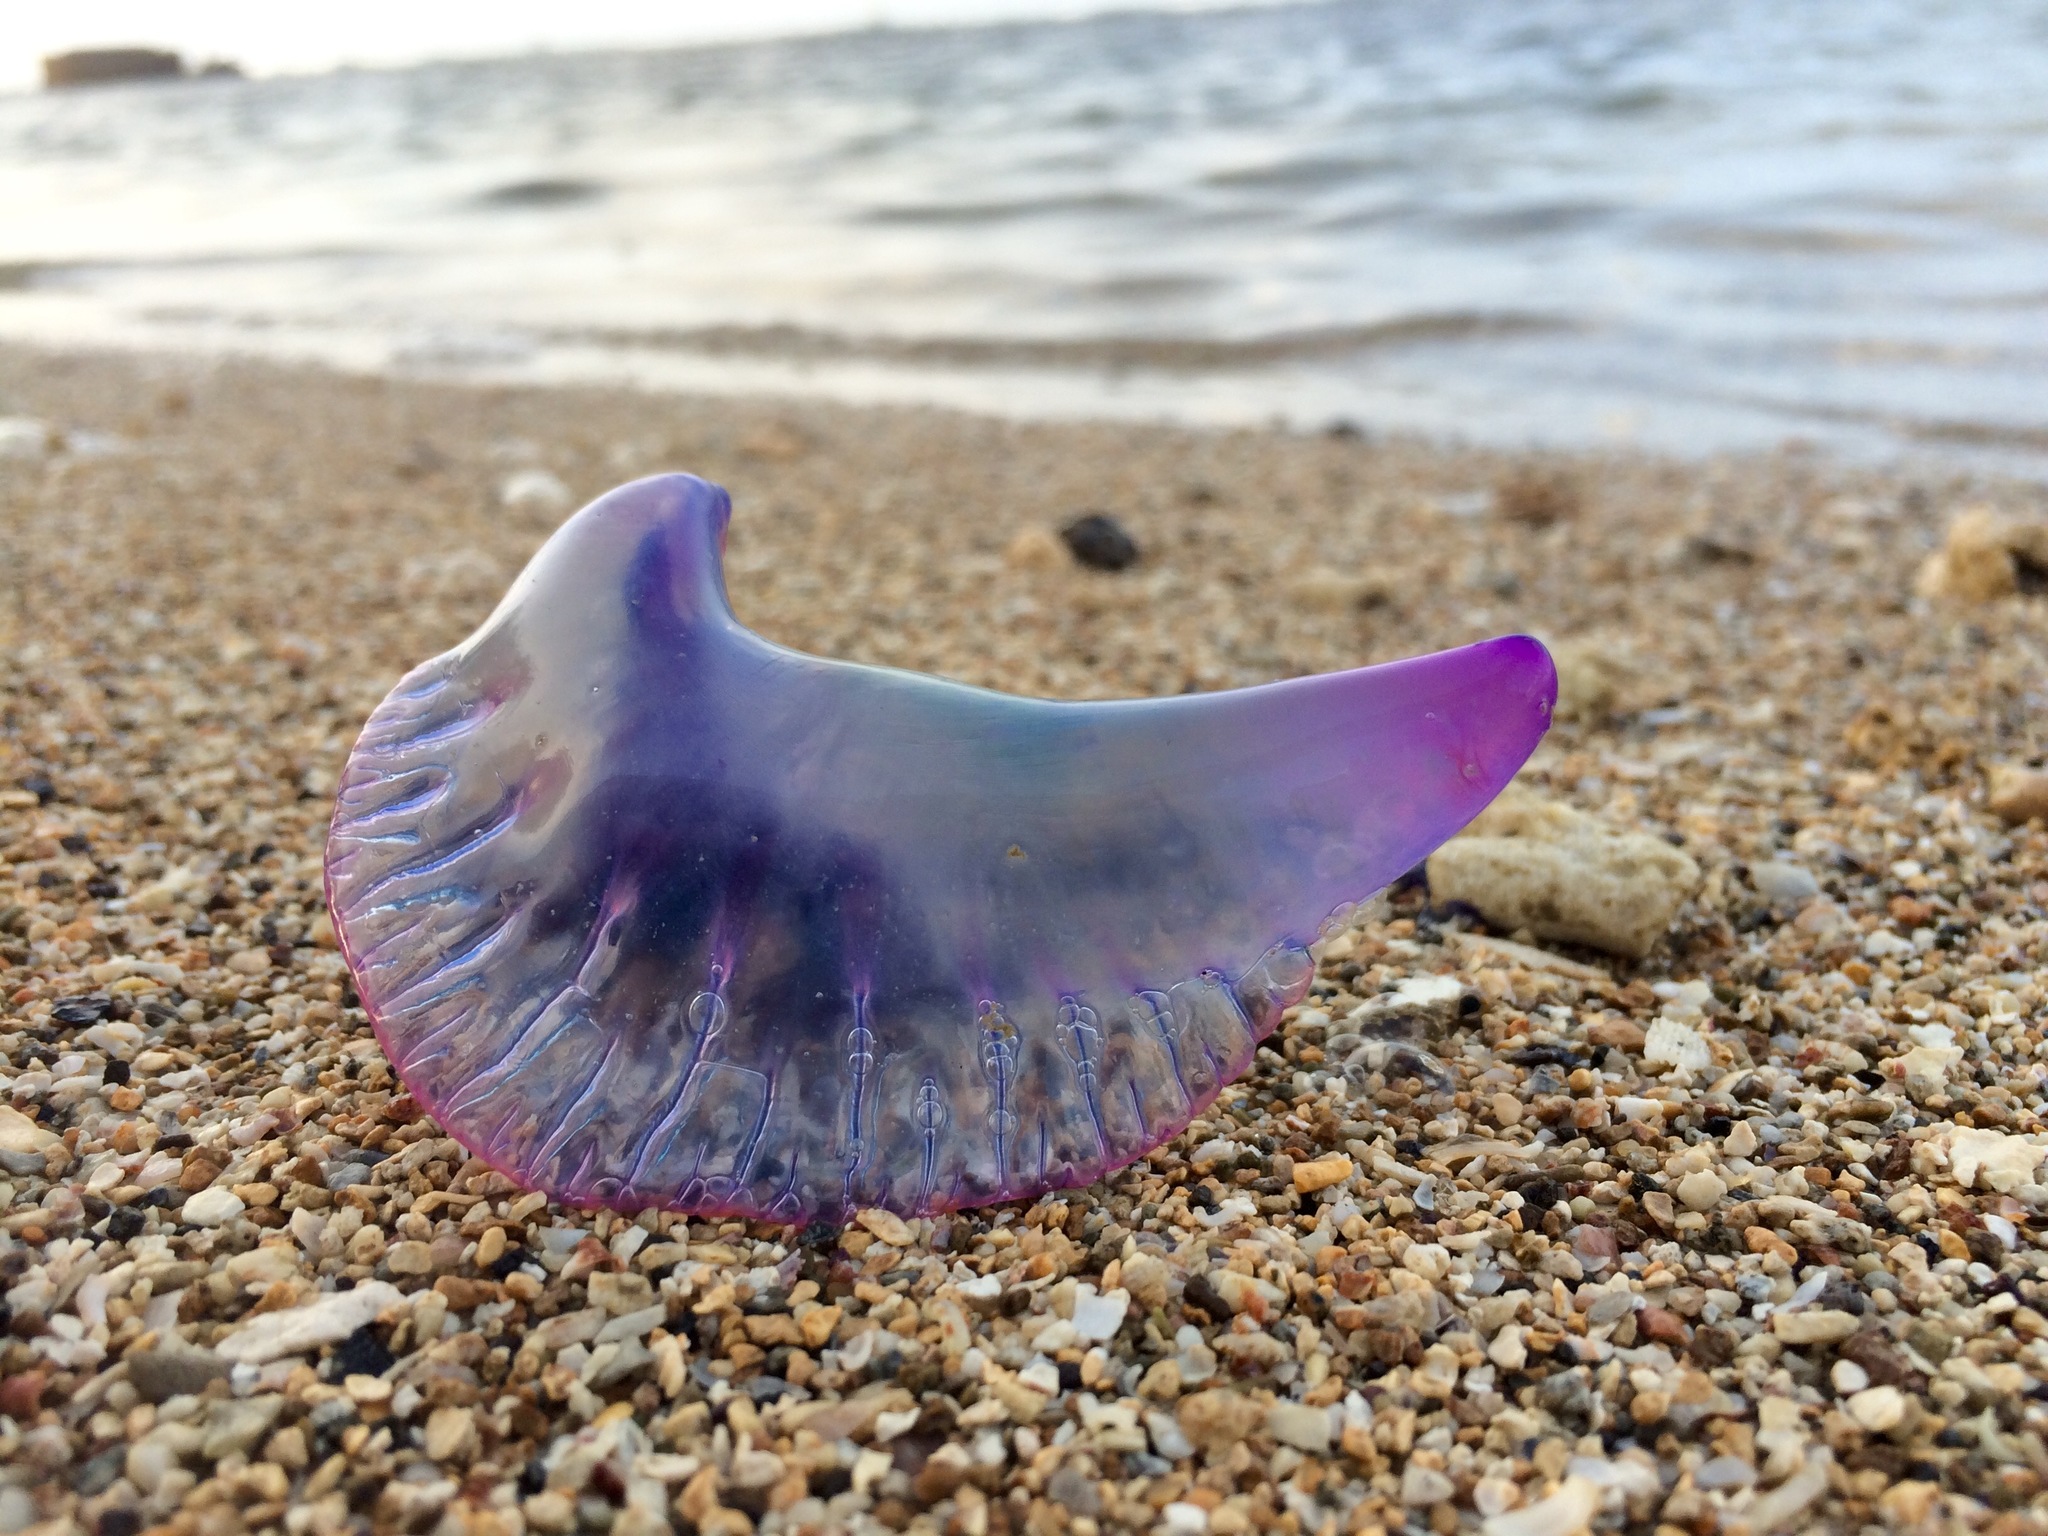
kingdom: Animalia
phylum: Cnidaria
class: Hydrozoa
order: Siphonophorae
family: Physaliidae
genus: Physalia
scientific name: Physalia physalis
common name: Portuguese man-of-war
